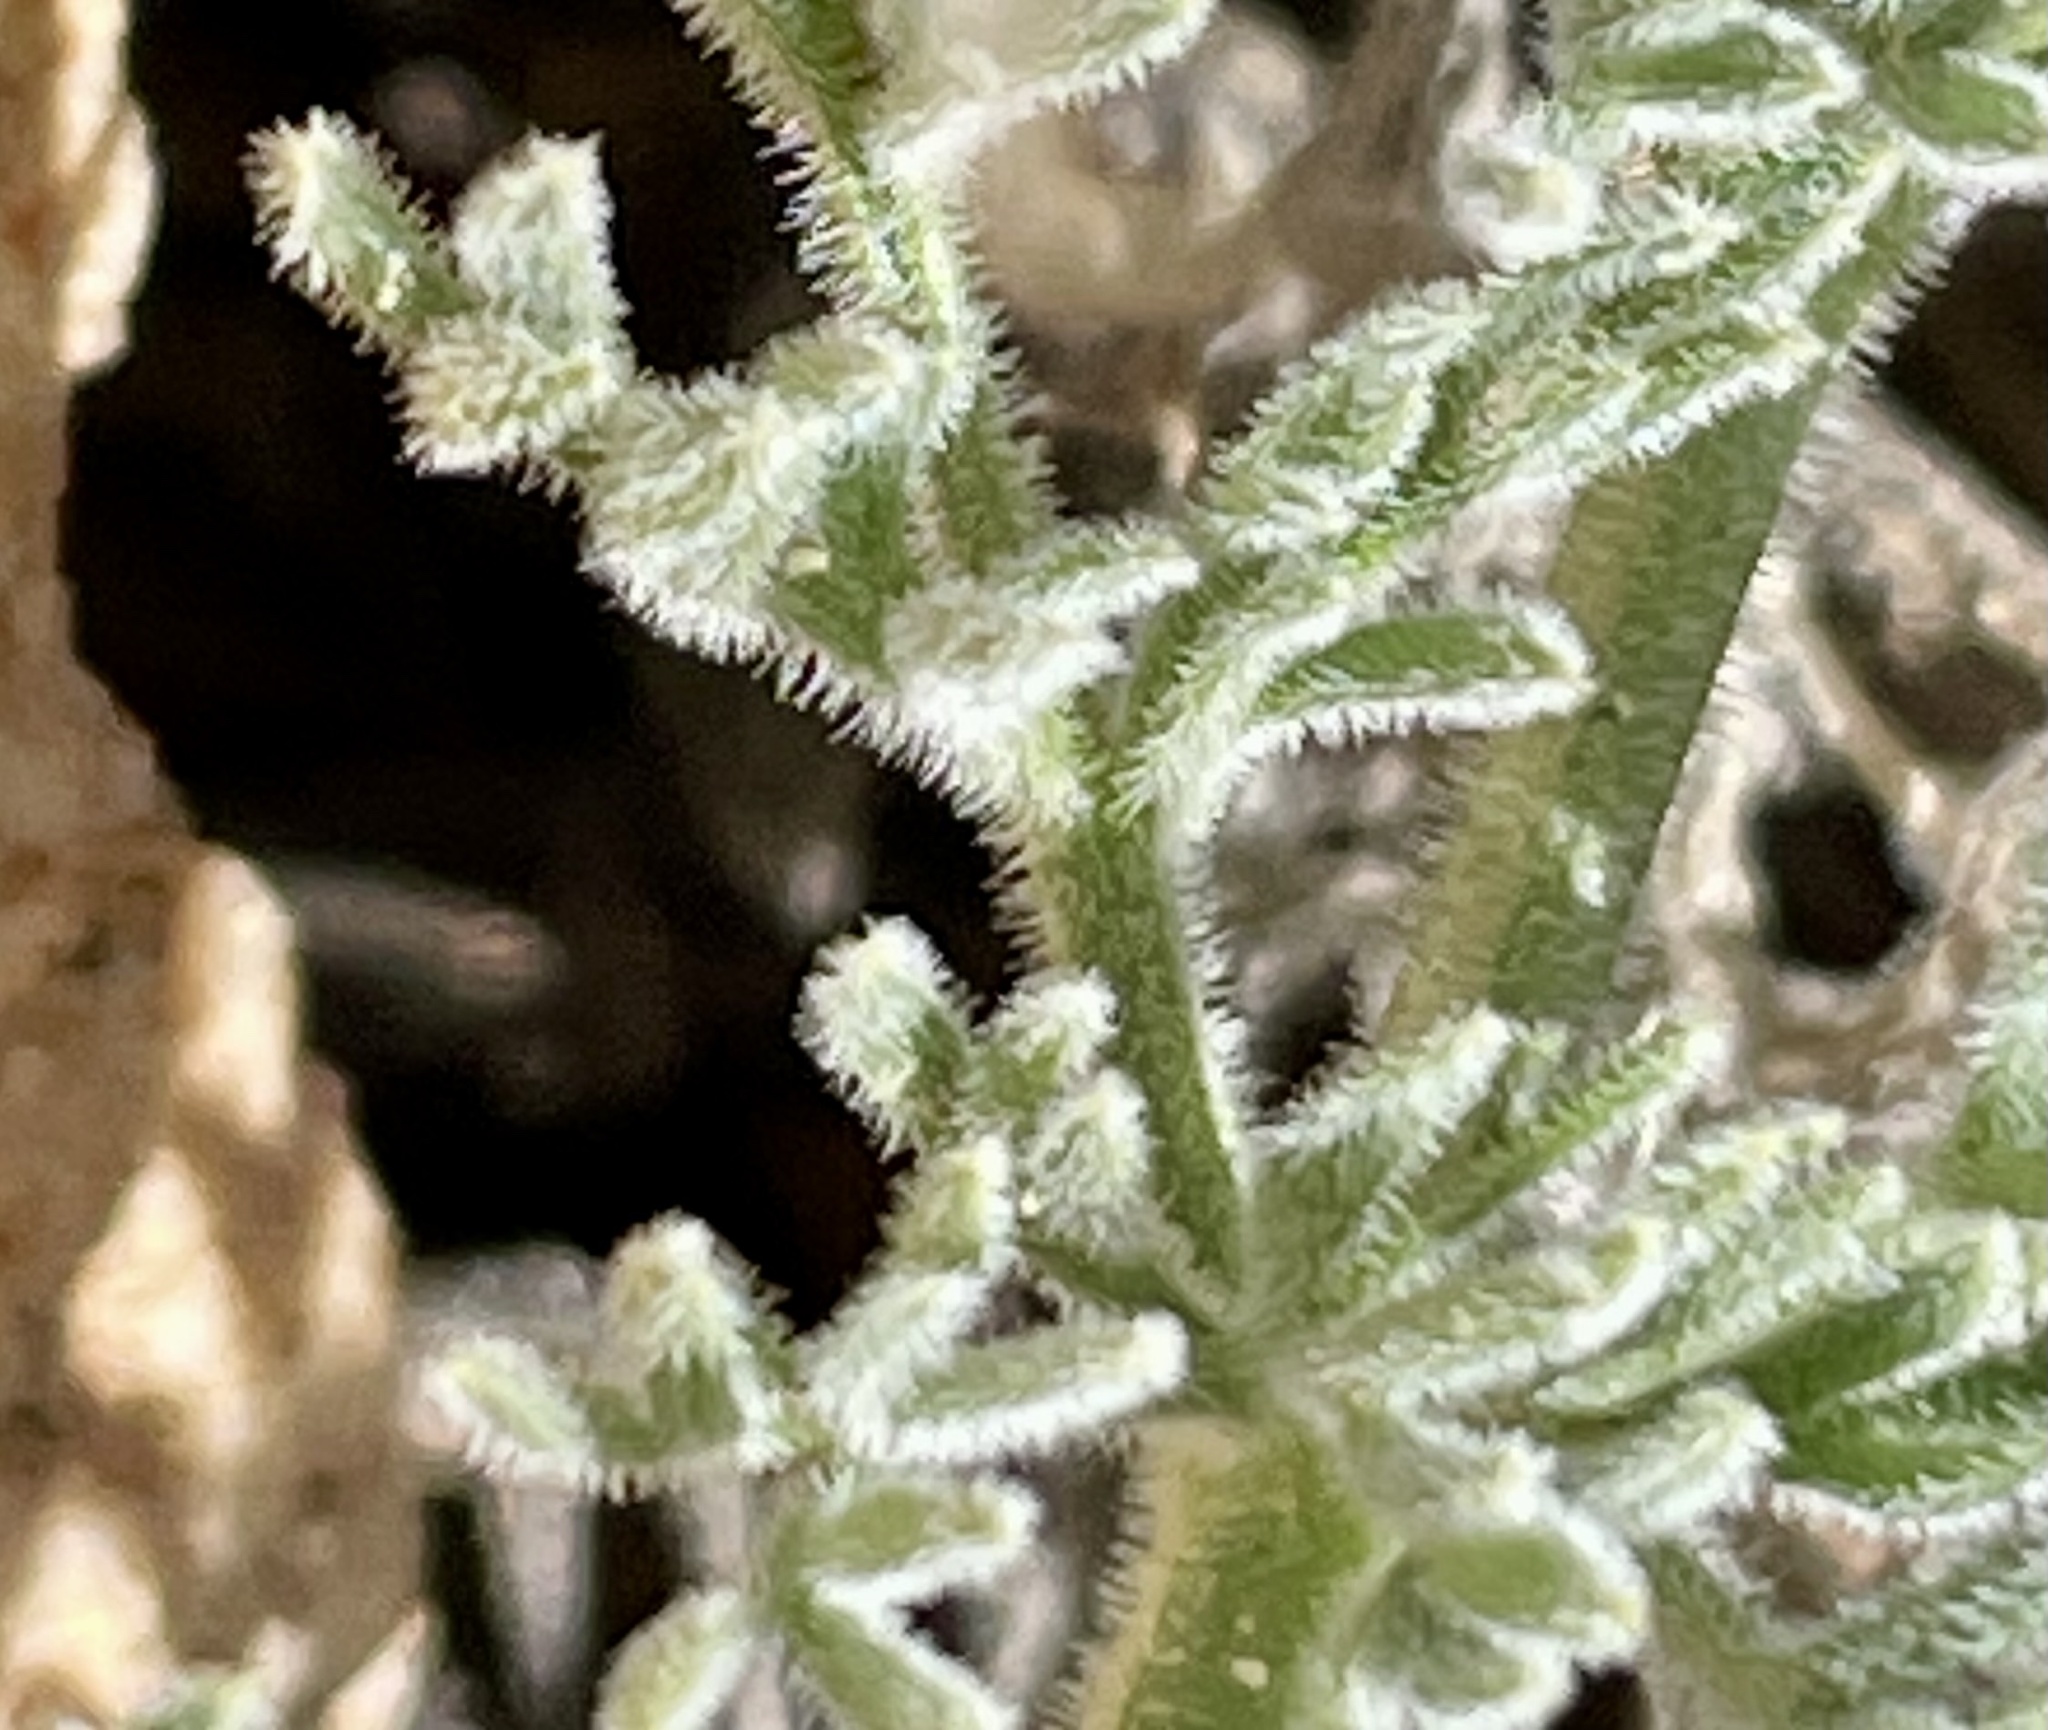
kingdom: Plantae
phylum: Tracheophyta
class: Magnoliopsida
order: Apiales
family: Apiaceae
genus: Lomatium
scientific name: Lomatium mohavense
